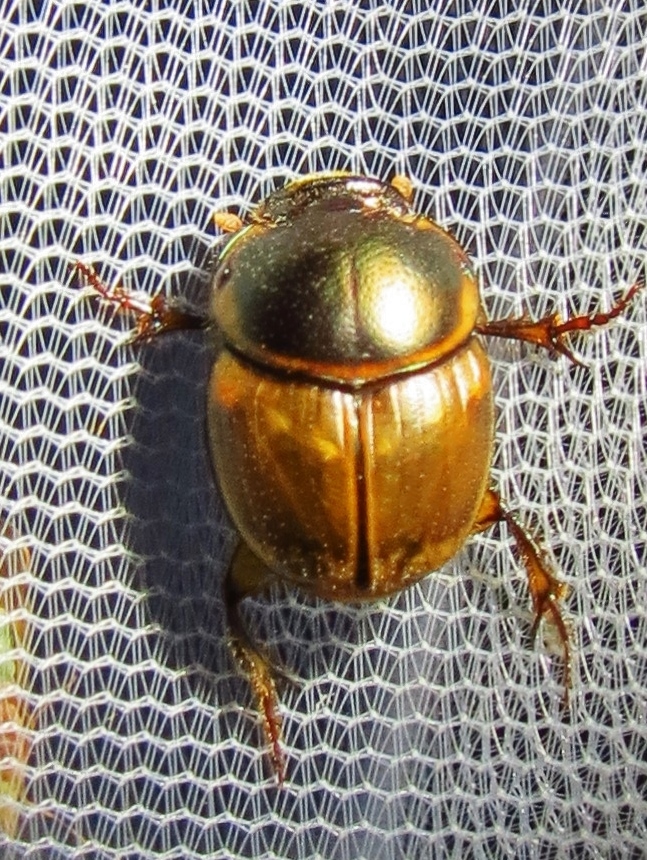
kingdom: Animalia
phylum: Arthropoda
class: Insecta
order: Coleoptera
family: Scarabaeidae
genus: Digitonthophagus
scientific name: Digitonthophagus gazella
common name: Brown dung beetle
